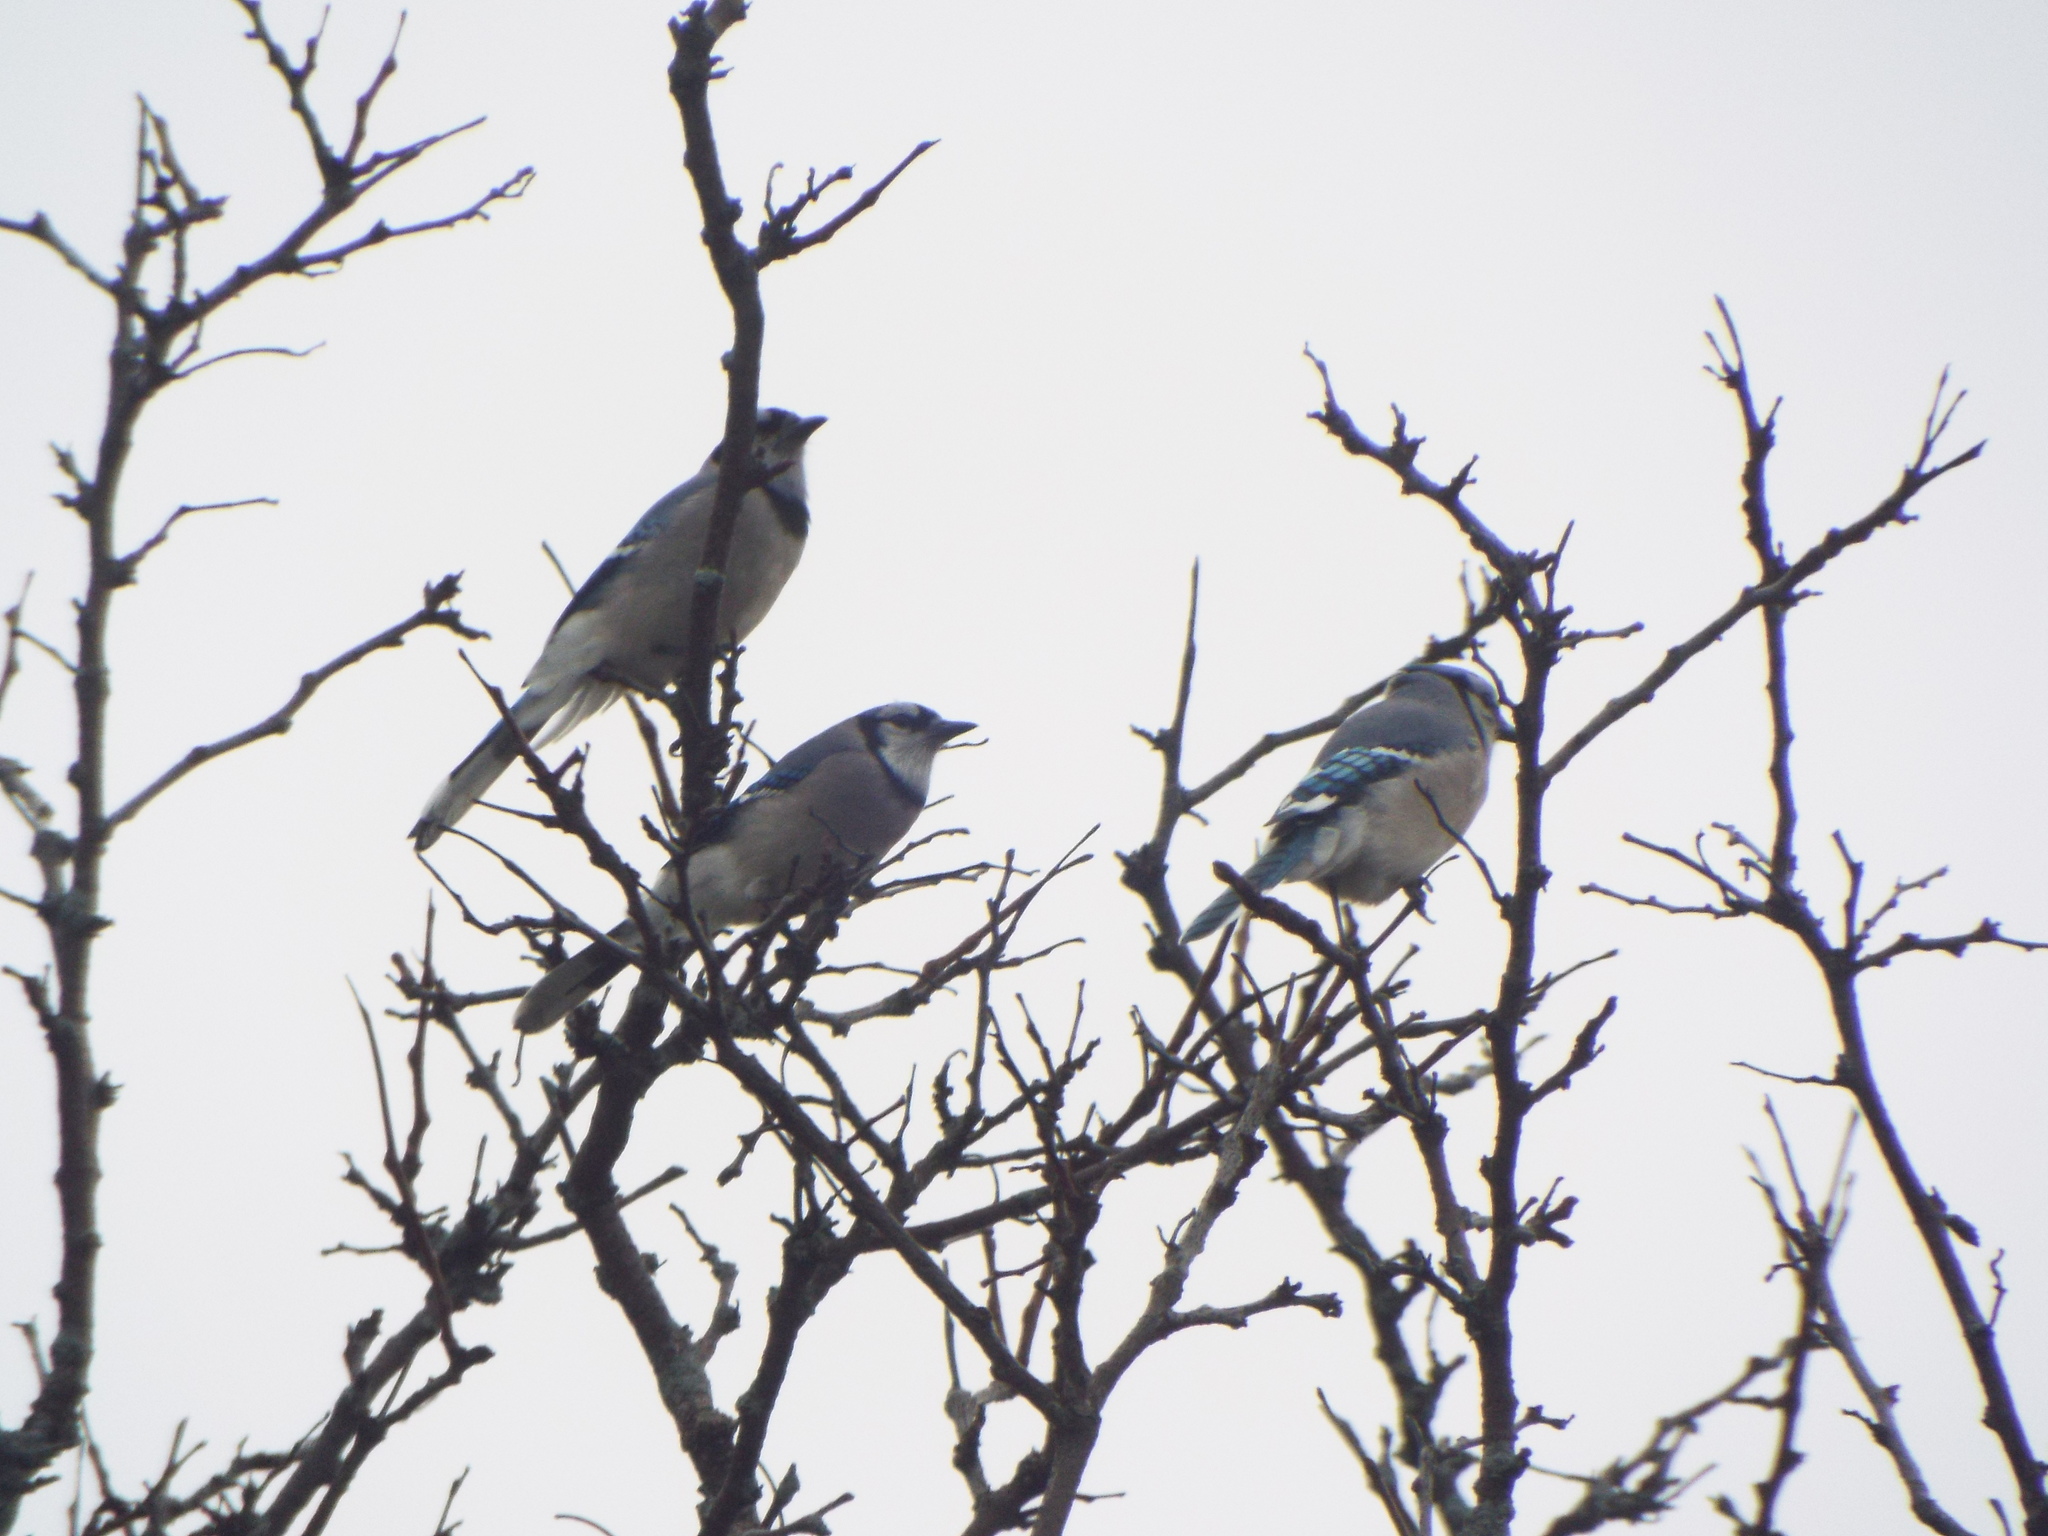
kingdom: Animalia
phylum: Chordata
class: Aves
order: Passeriformes
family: Corvidae
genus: Cyanocitta
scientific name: Cyanocitta cristata
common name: Blue jay
